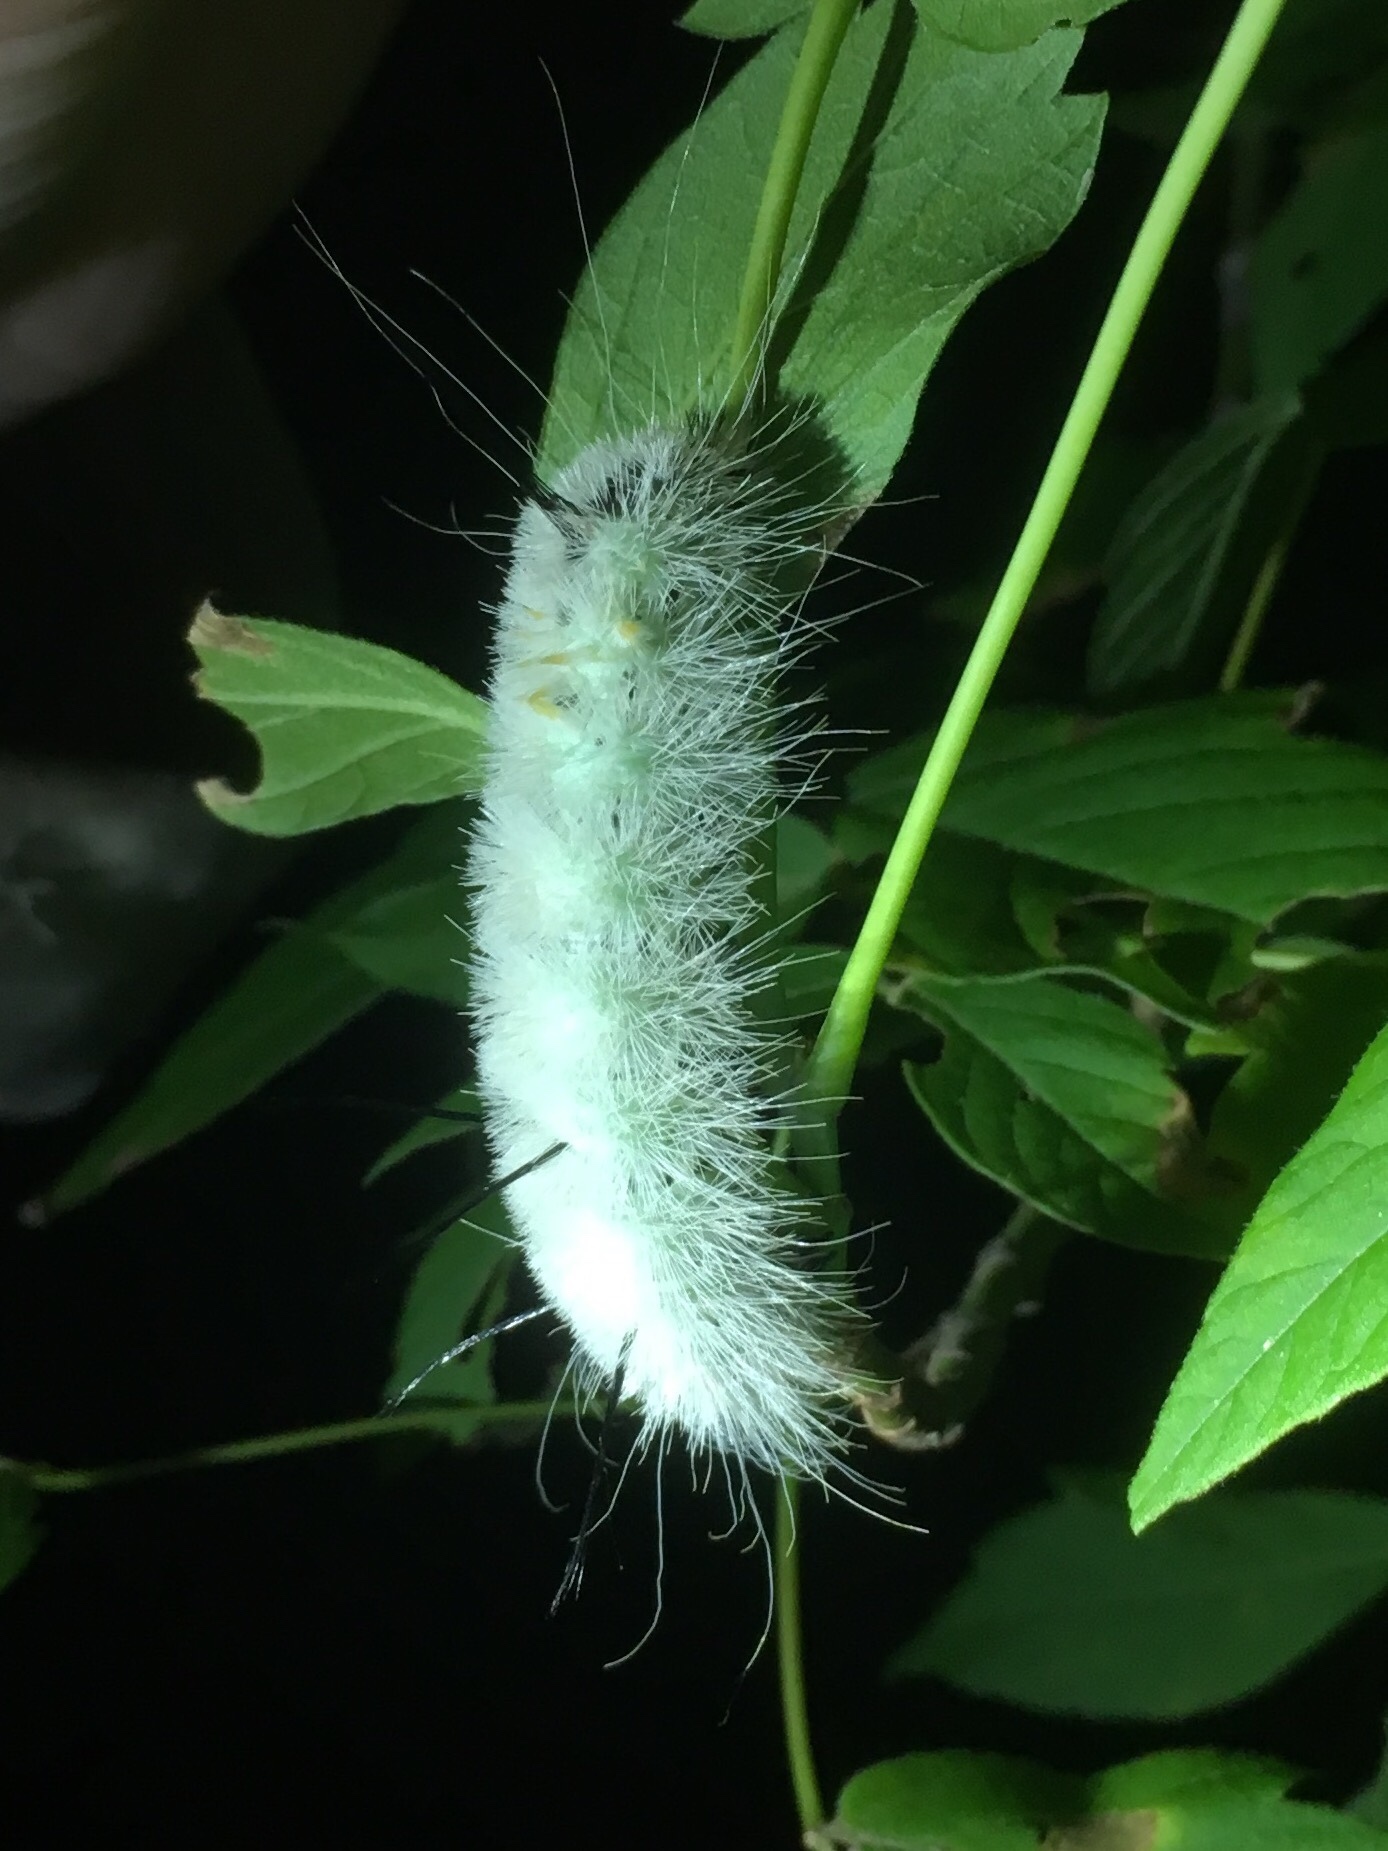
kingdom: Animalia
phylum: Arthropoda
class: Insecta
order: Lepidoptera
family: Noctuidae
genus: Acronicta
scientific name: Acronicta americana
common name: American dagger
